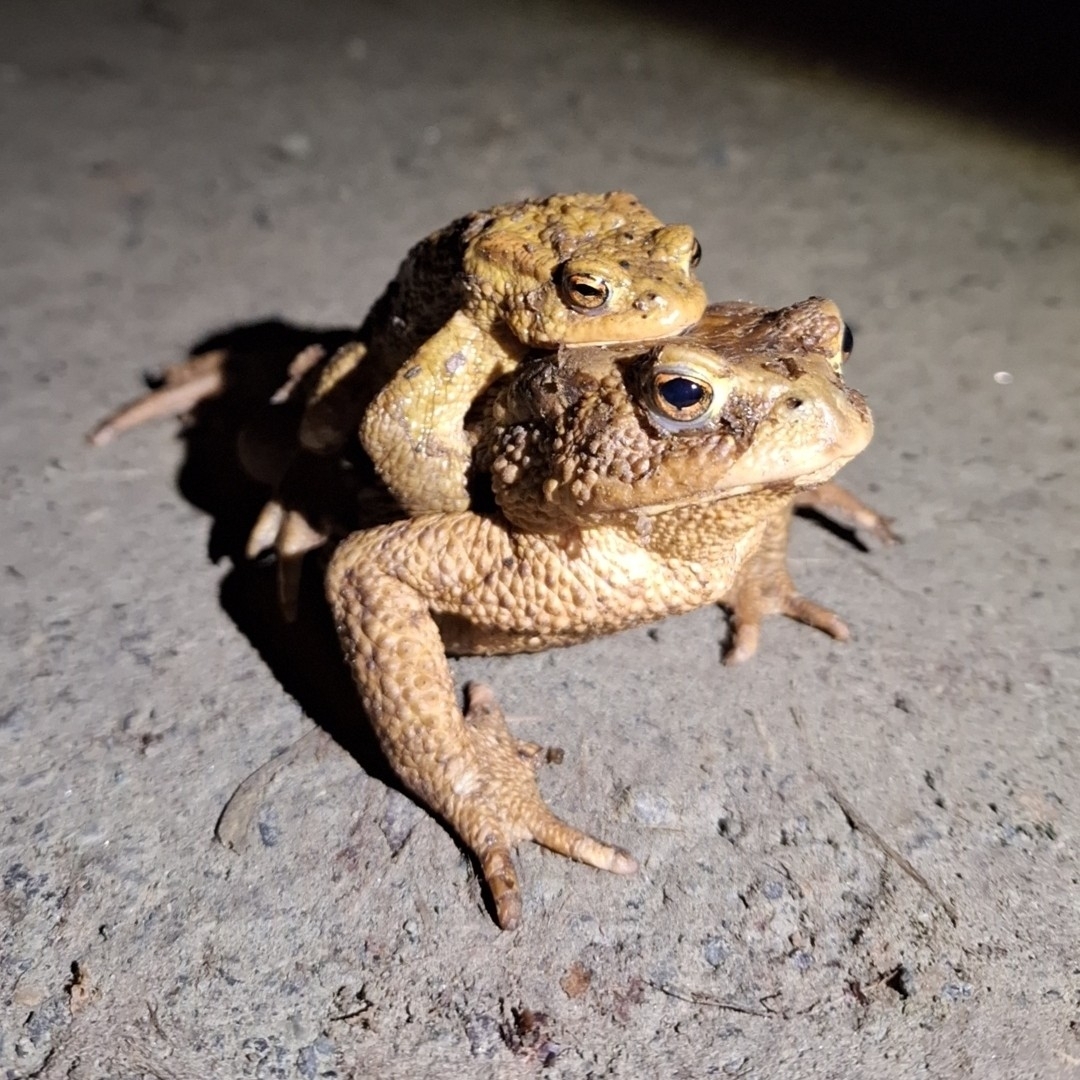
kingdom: Animalia
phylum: Chordata
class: Amphibia
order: Anura
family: Bufonidae
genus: Bufo
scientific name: Bufo bufo
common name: Common toad
